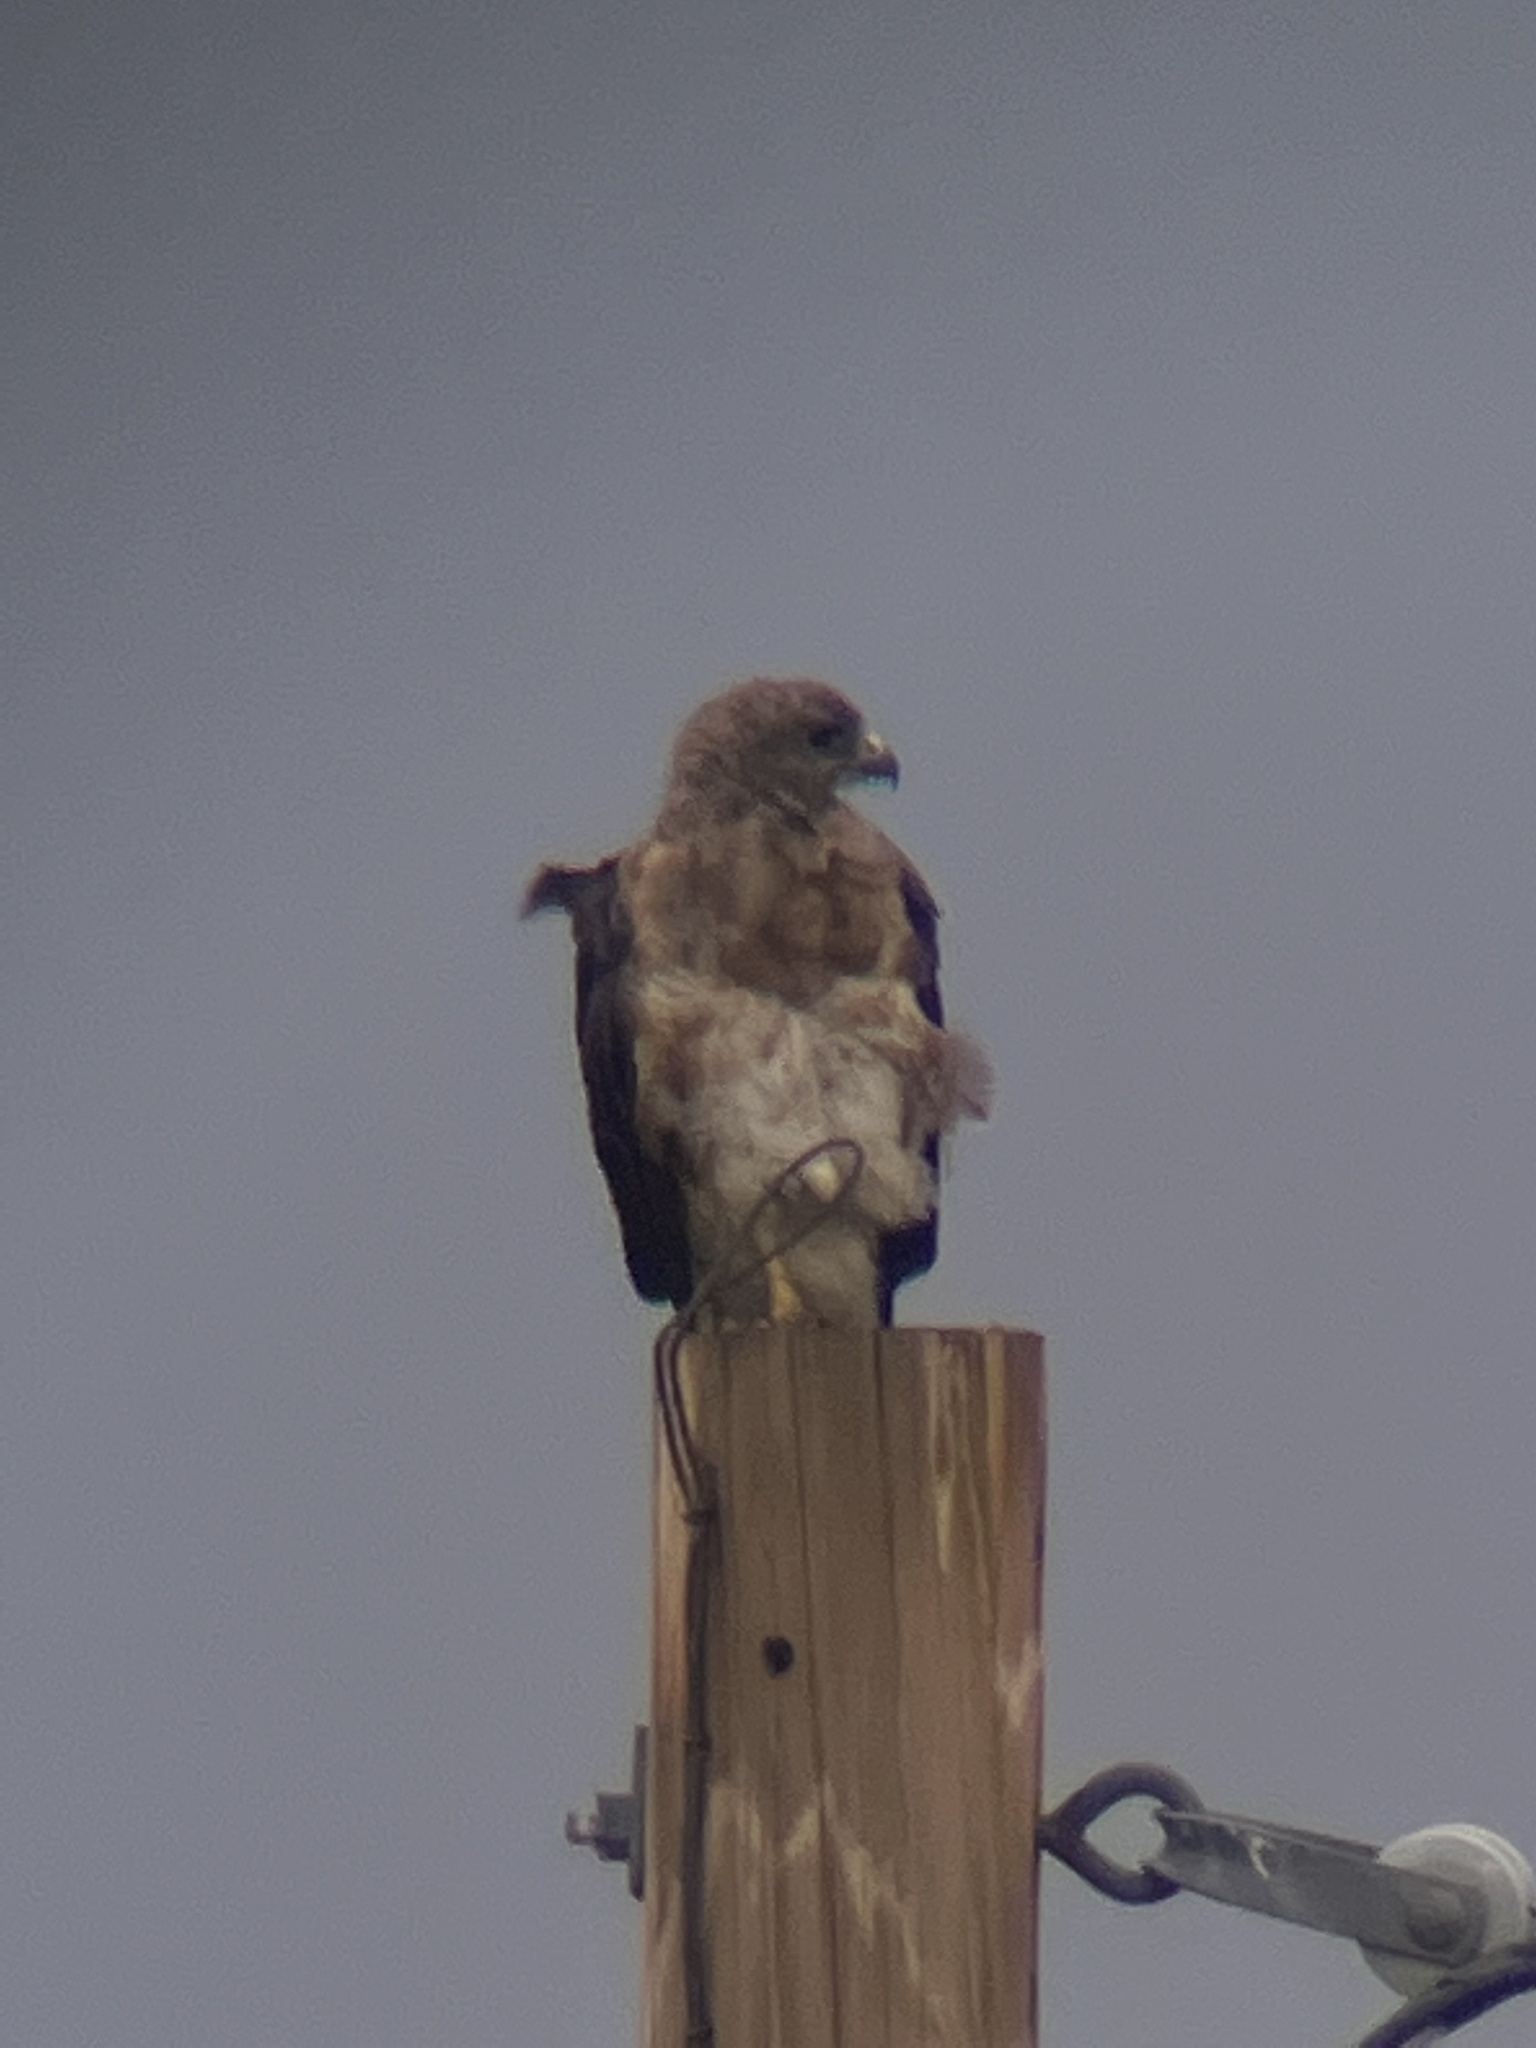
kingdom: Animalia
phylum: Chordata
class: Aves
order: Accipitriformes
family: Accipitridae
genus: Buteo
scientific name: Buteo swainsoni
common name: Swainson's hawk
